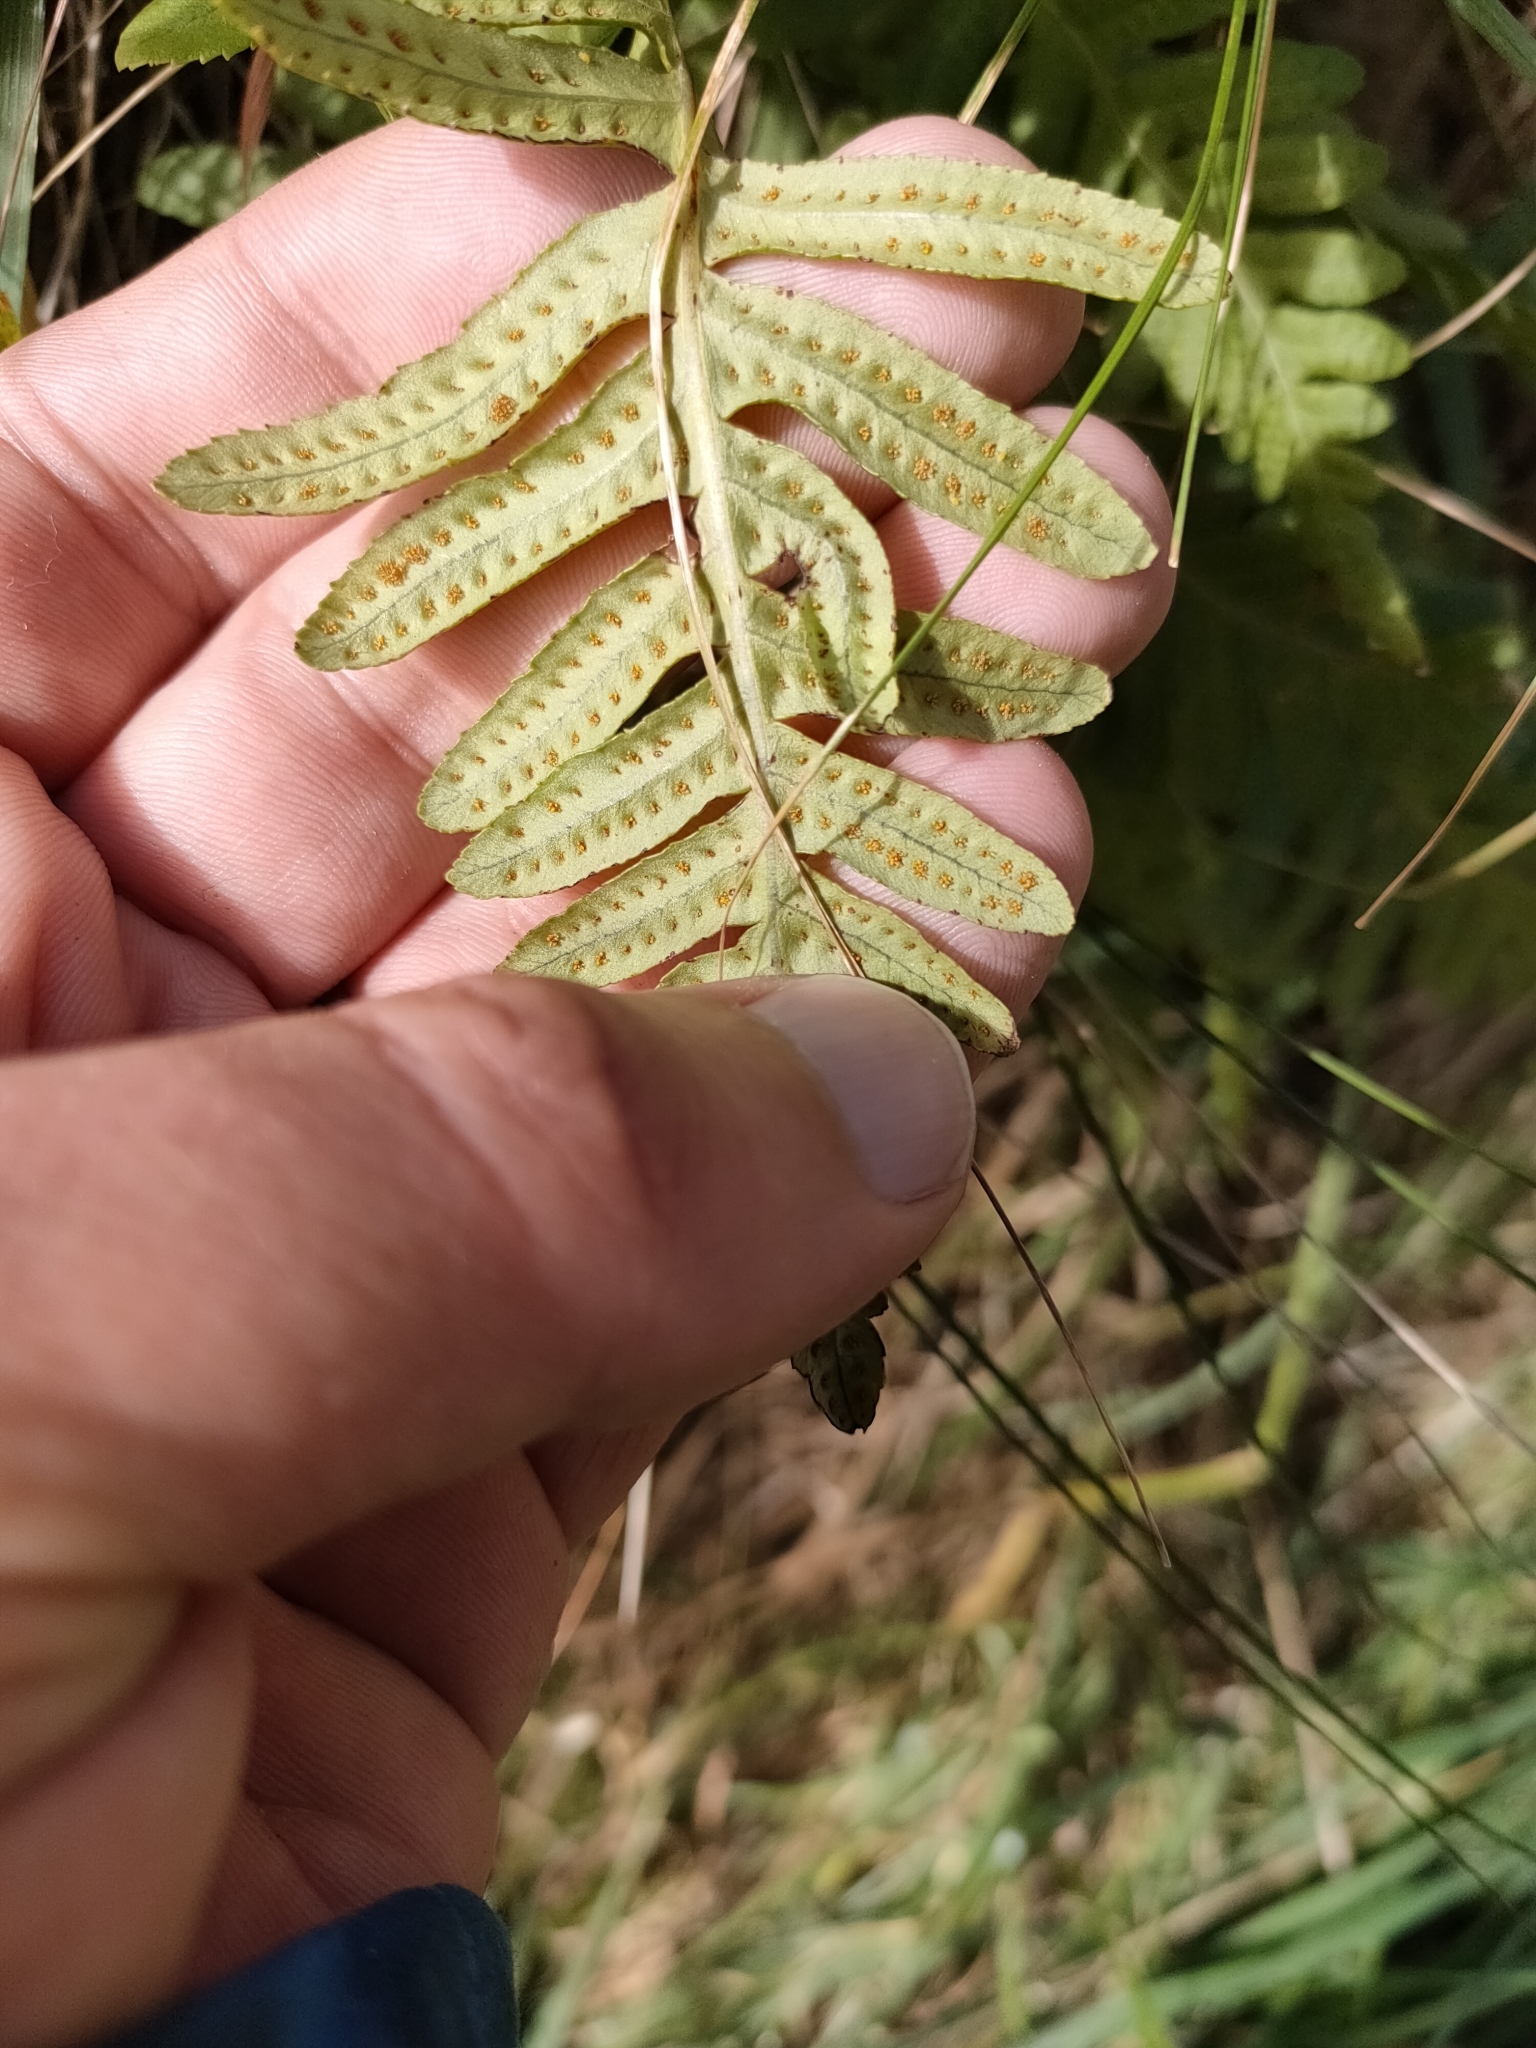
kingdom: Plantae
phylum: Tracheophyta
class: Polypodiopsida
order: Polypodiales
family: Polypodiaceae
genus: Polypodium
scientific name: Polypodium vulgare
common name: Common polypody
